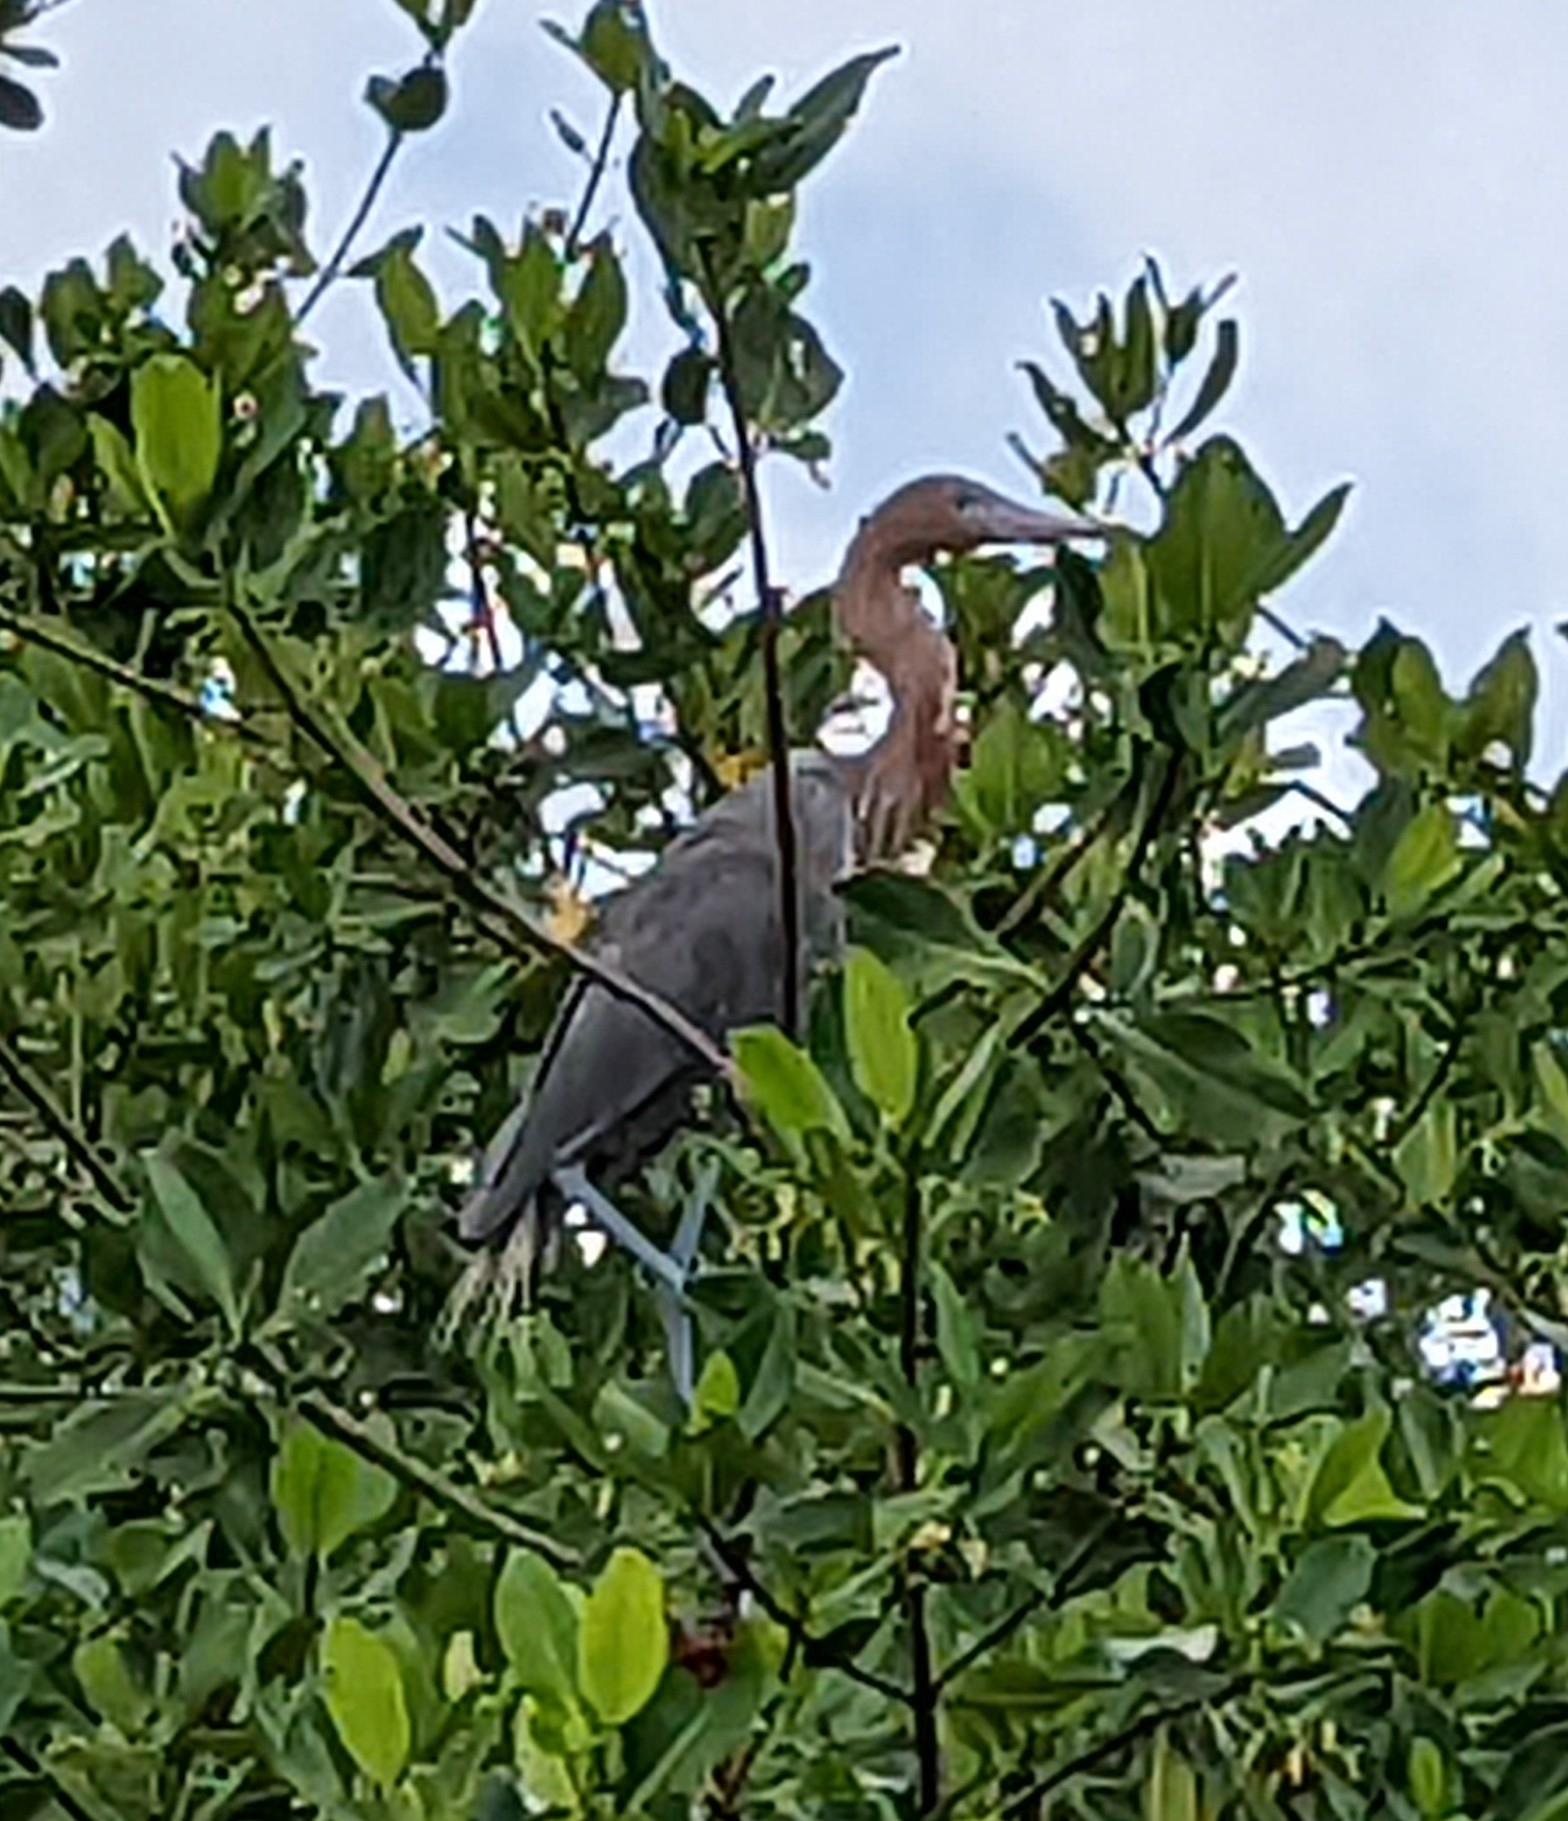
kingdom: Animalia
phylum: Chordata
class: Aves
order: Pelecaniformes
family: Ardeidae
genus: Egretta
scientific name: Egretta rufescens
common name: Reddish egret
